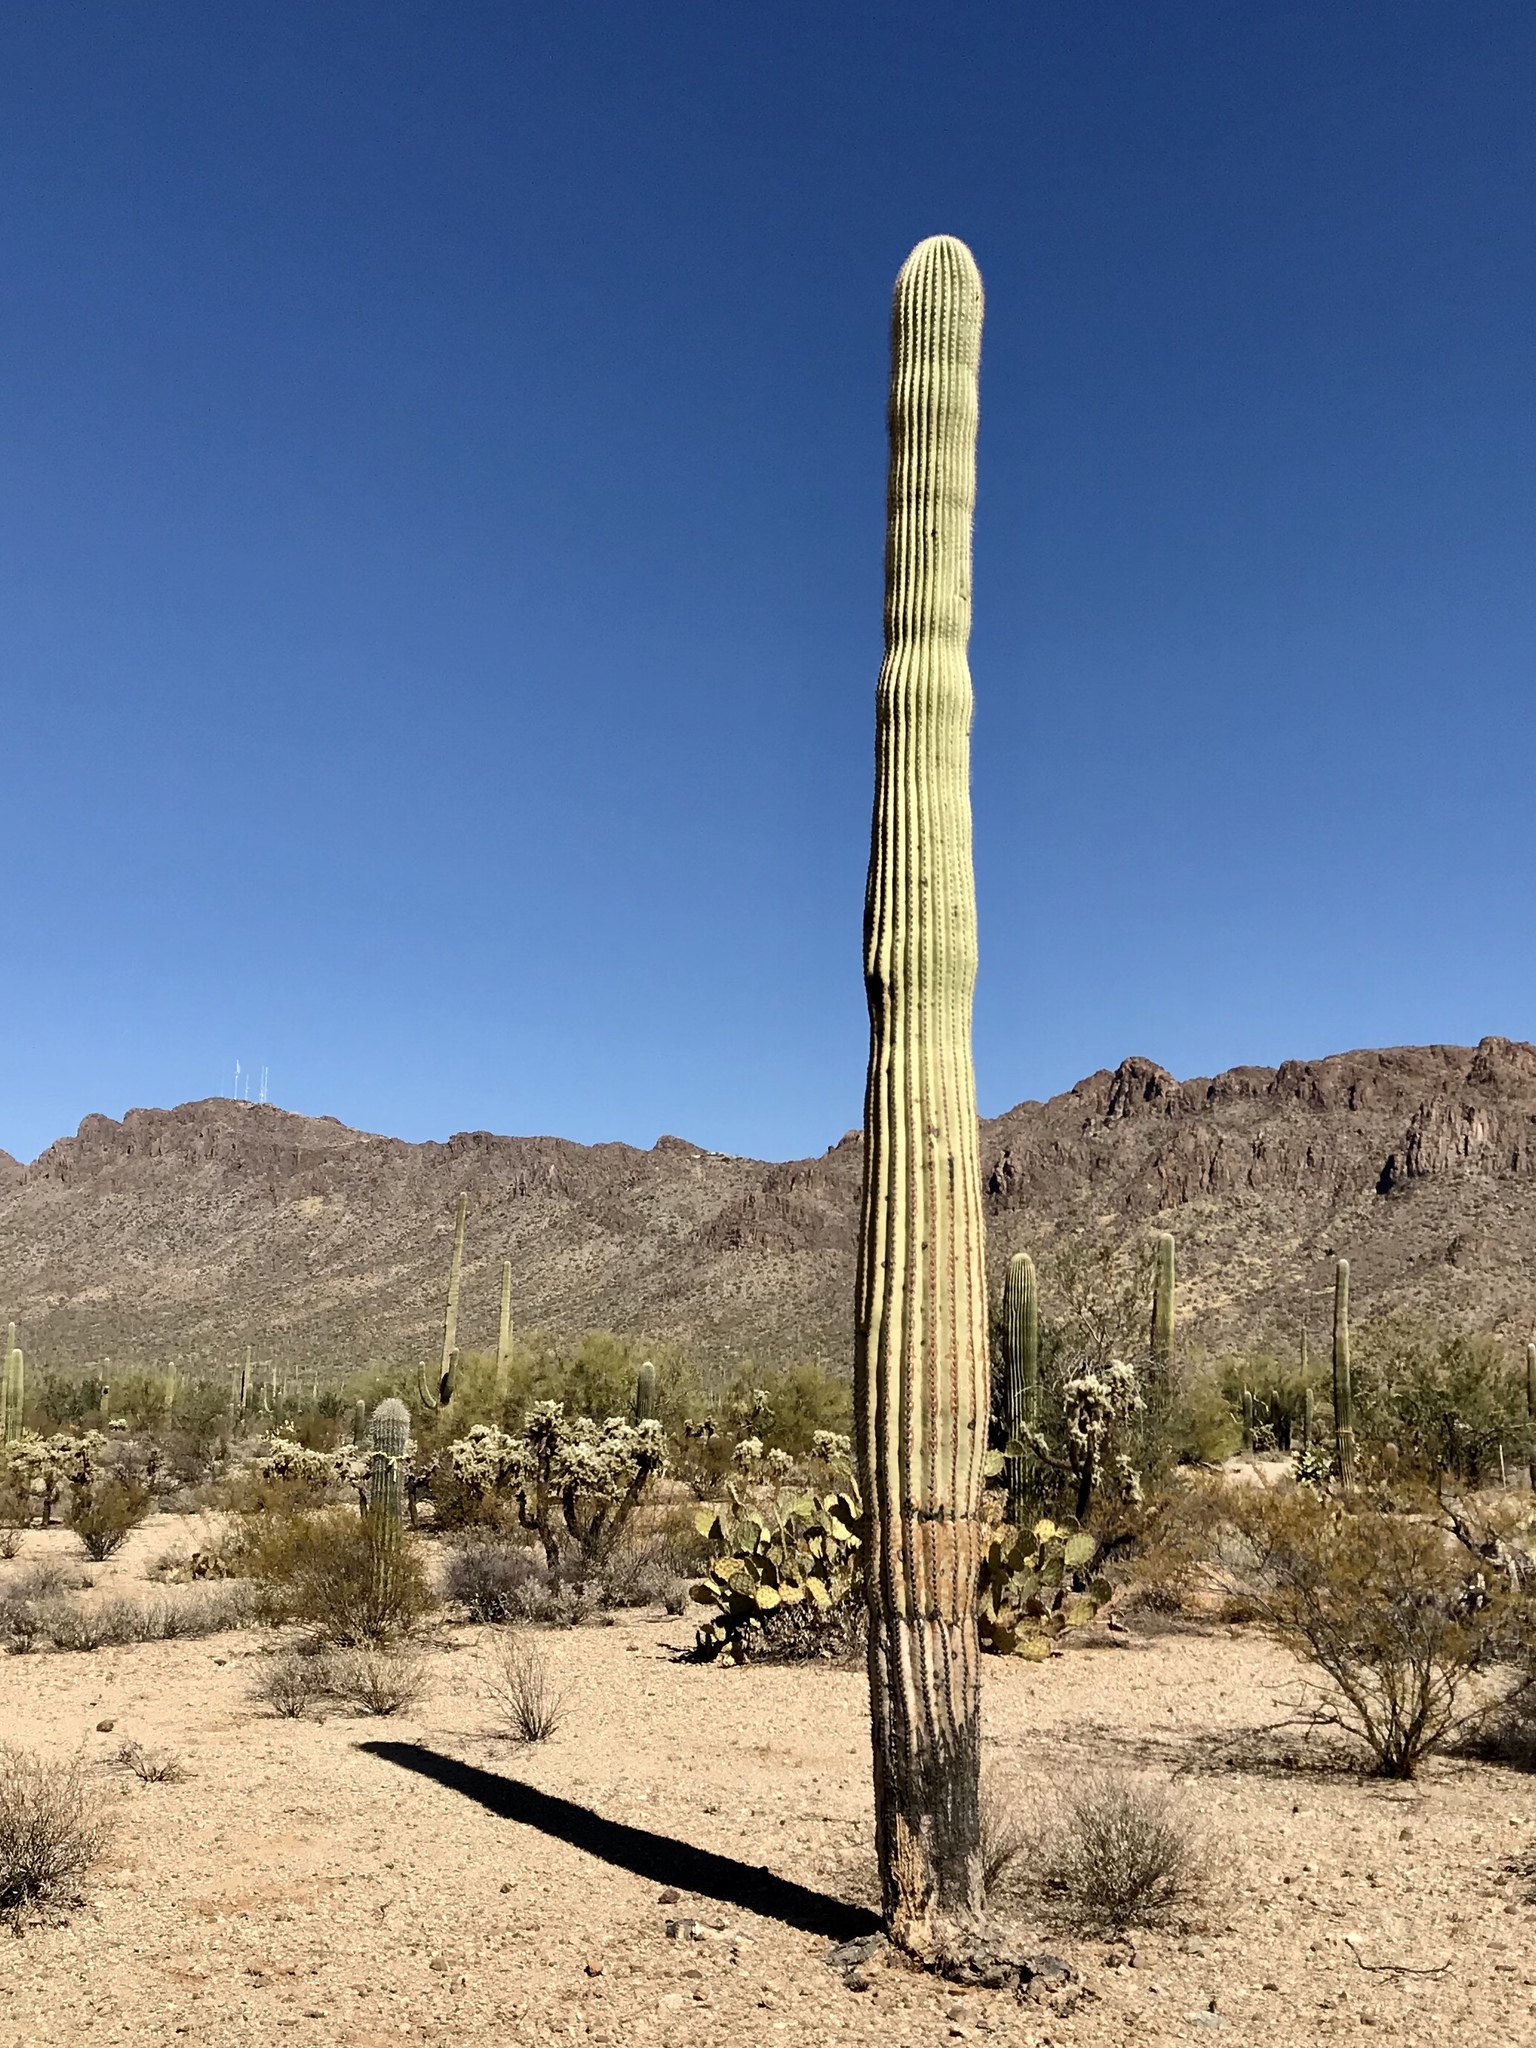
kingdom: Plantae
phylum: Tracheophyta
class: Magnoliopsida
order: Caryophyllales
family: Cactaceae
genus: Carnegiea
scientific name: Carnegiea gigantea
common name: Saguaro
